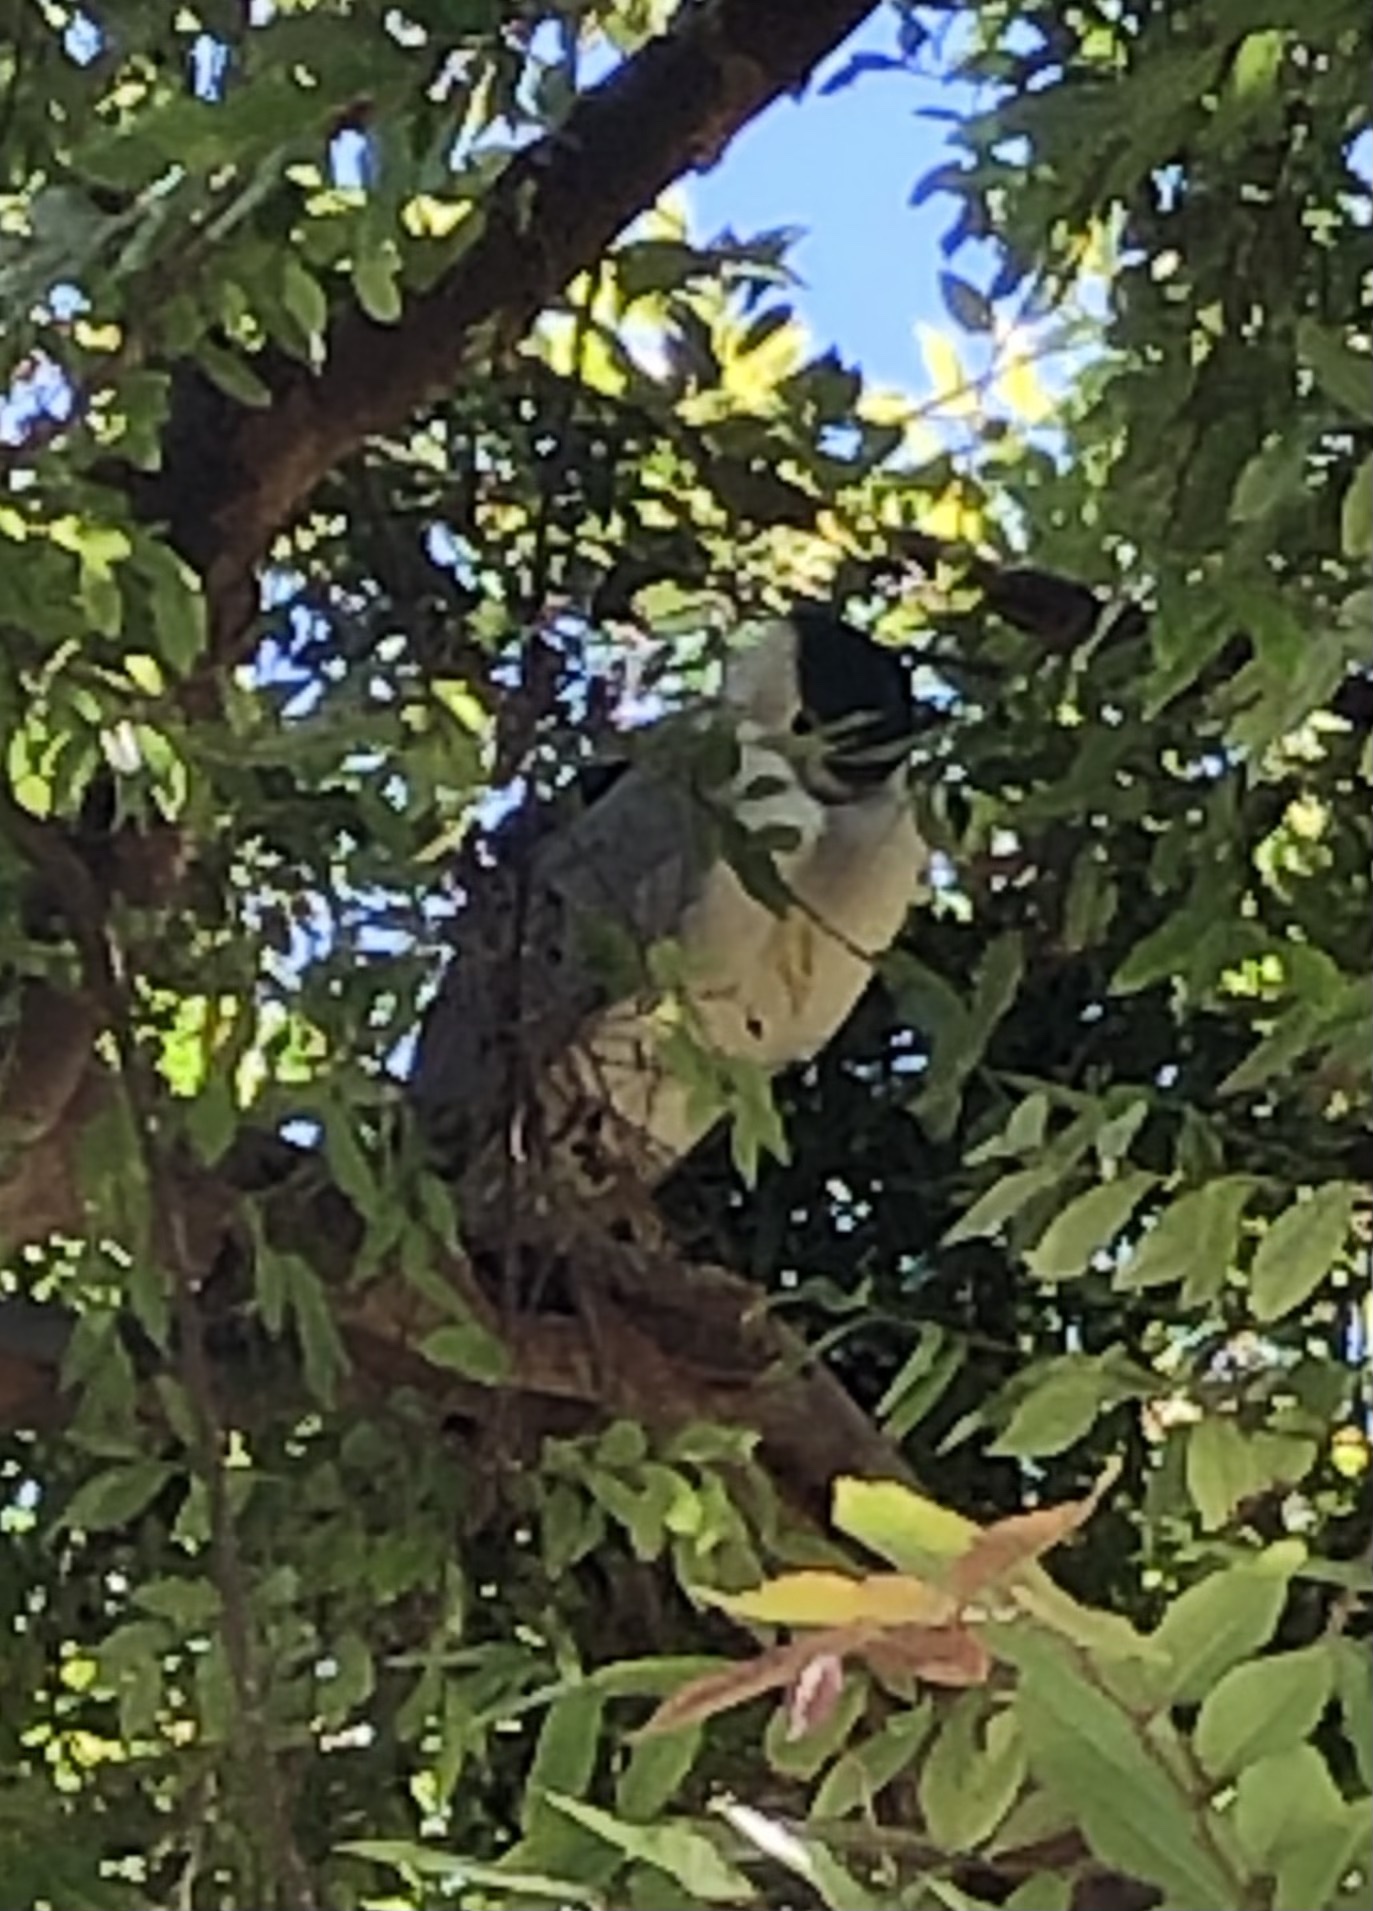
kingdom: Animalia
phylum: Chordata
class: Aves
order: Pelecaniformes
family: Ardeidae
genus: Nycticorax
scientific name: Nycticorax nycticorax
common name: Black-crowned night heron
